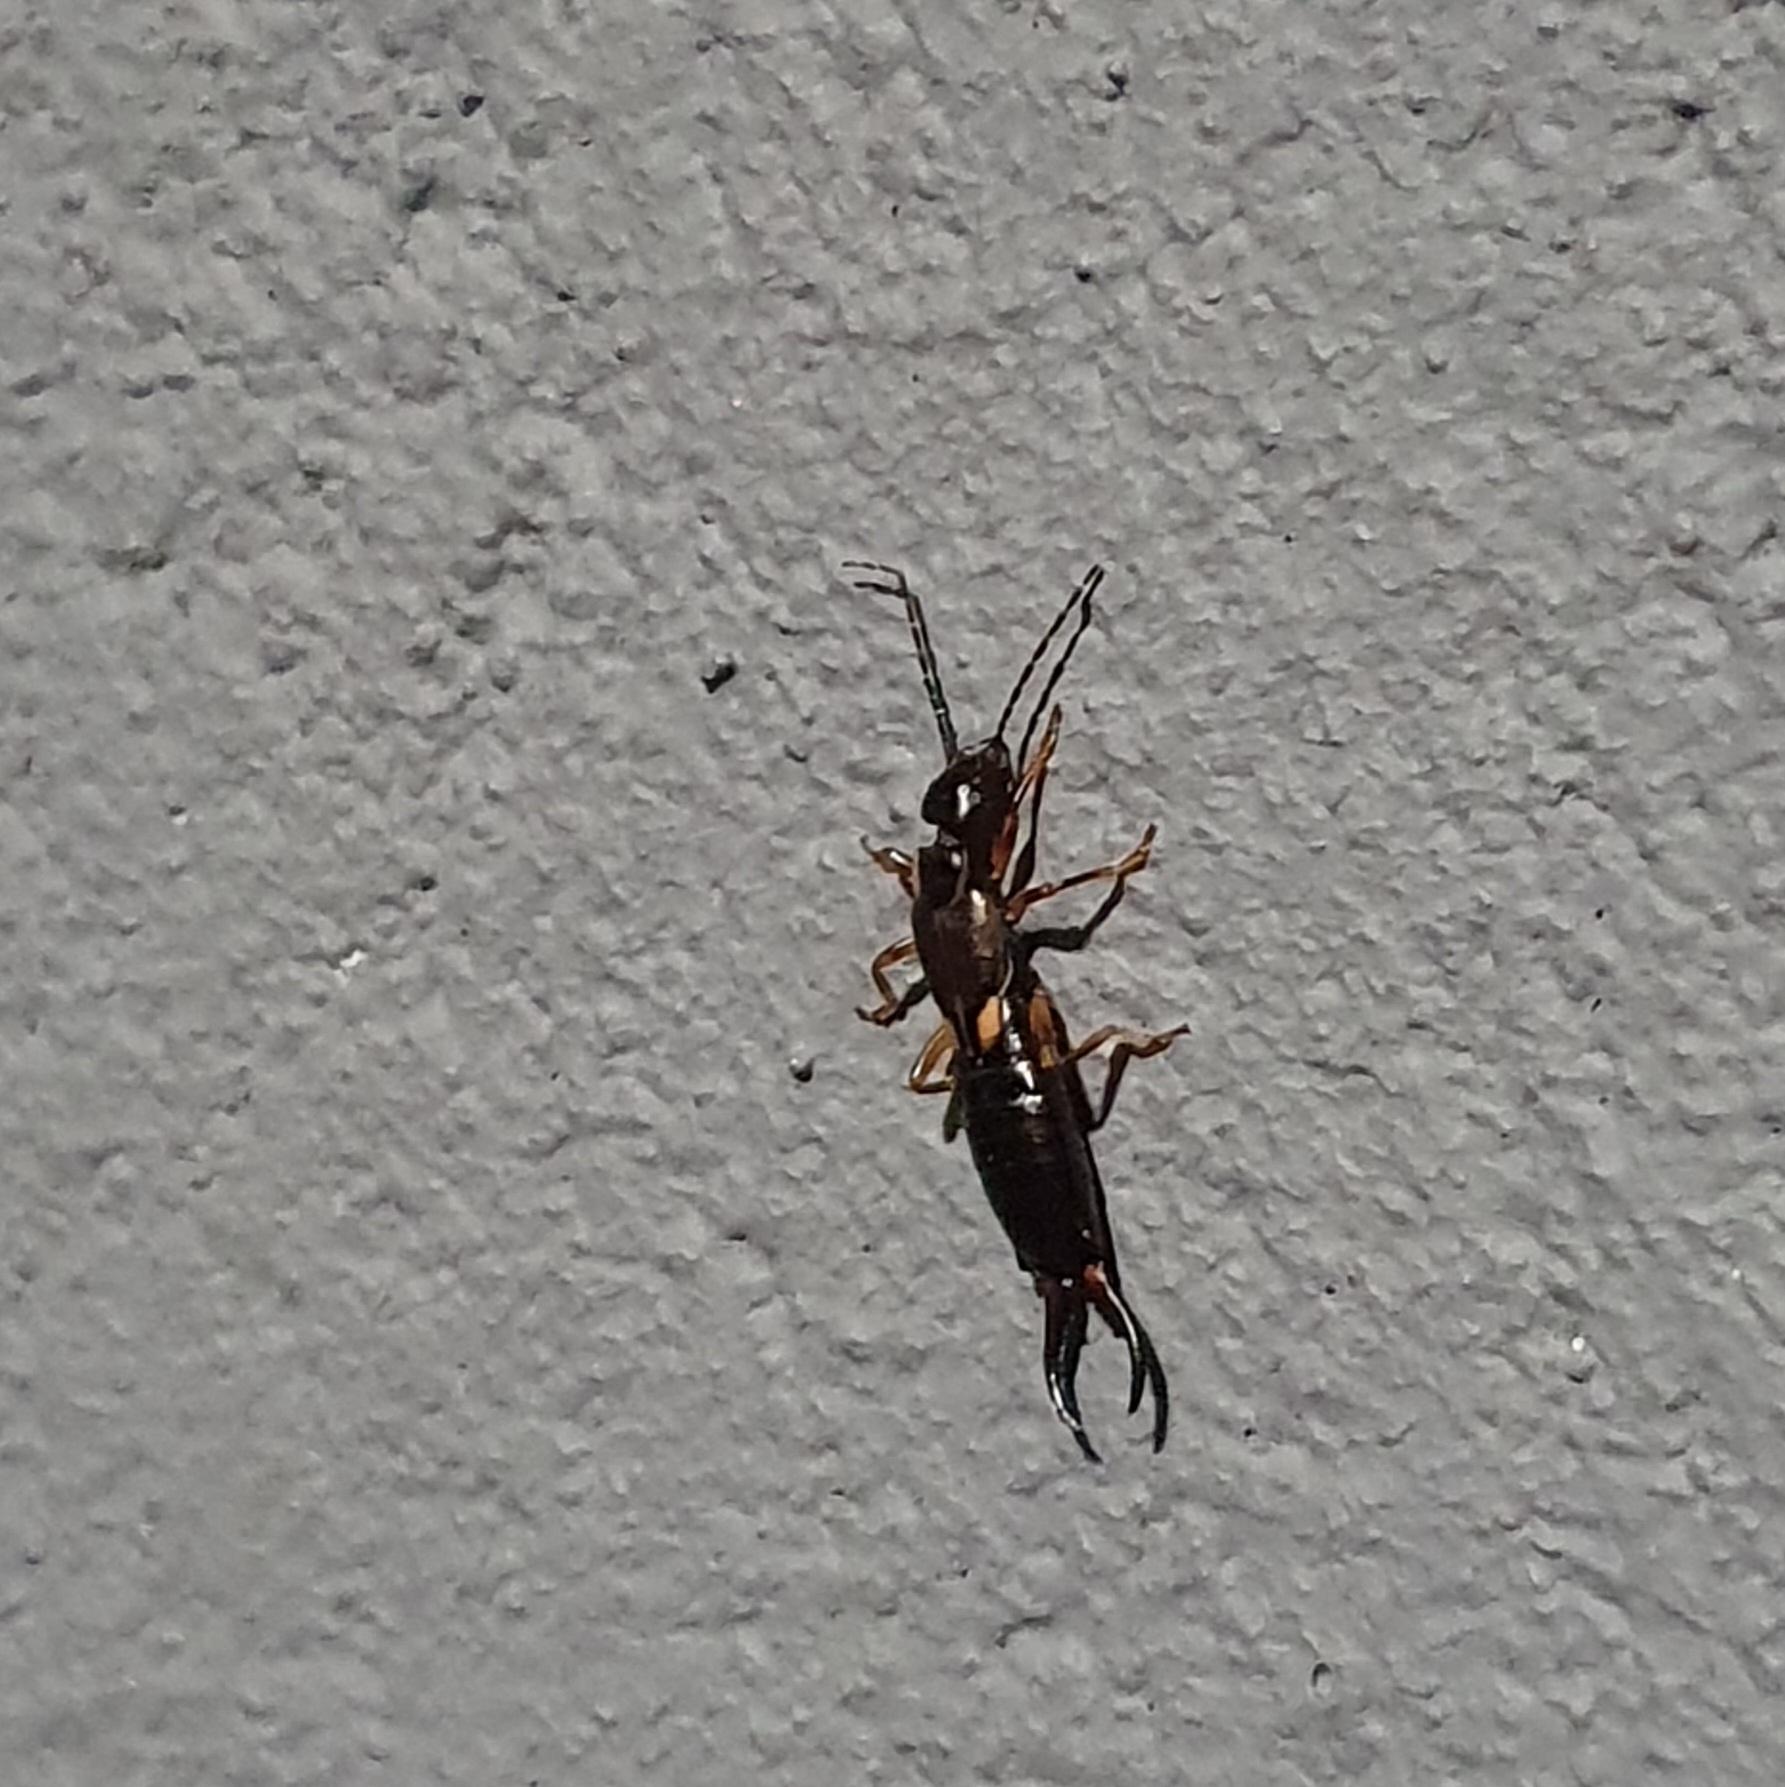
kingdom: Animalia
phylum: Arthropoda
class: Insecta
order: Dermaptera
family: Forficulidae
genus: Forficula
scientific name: Forficula
